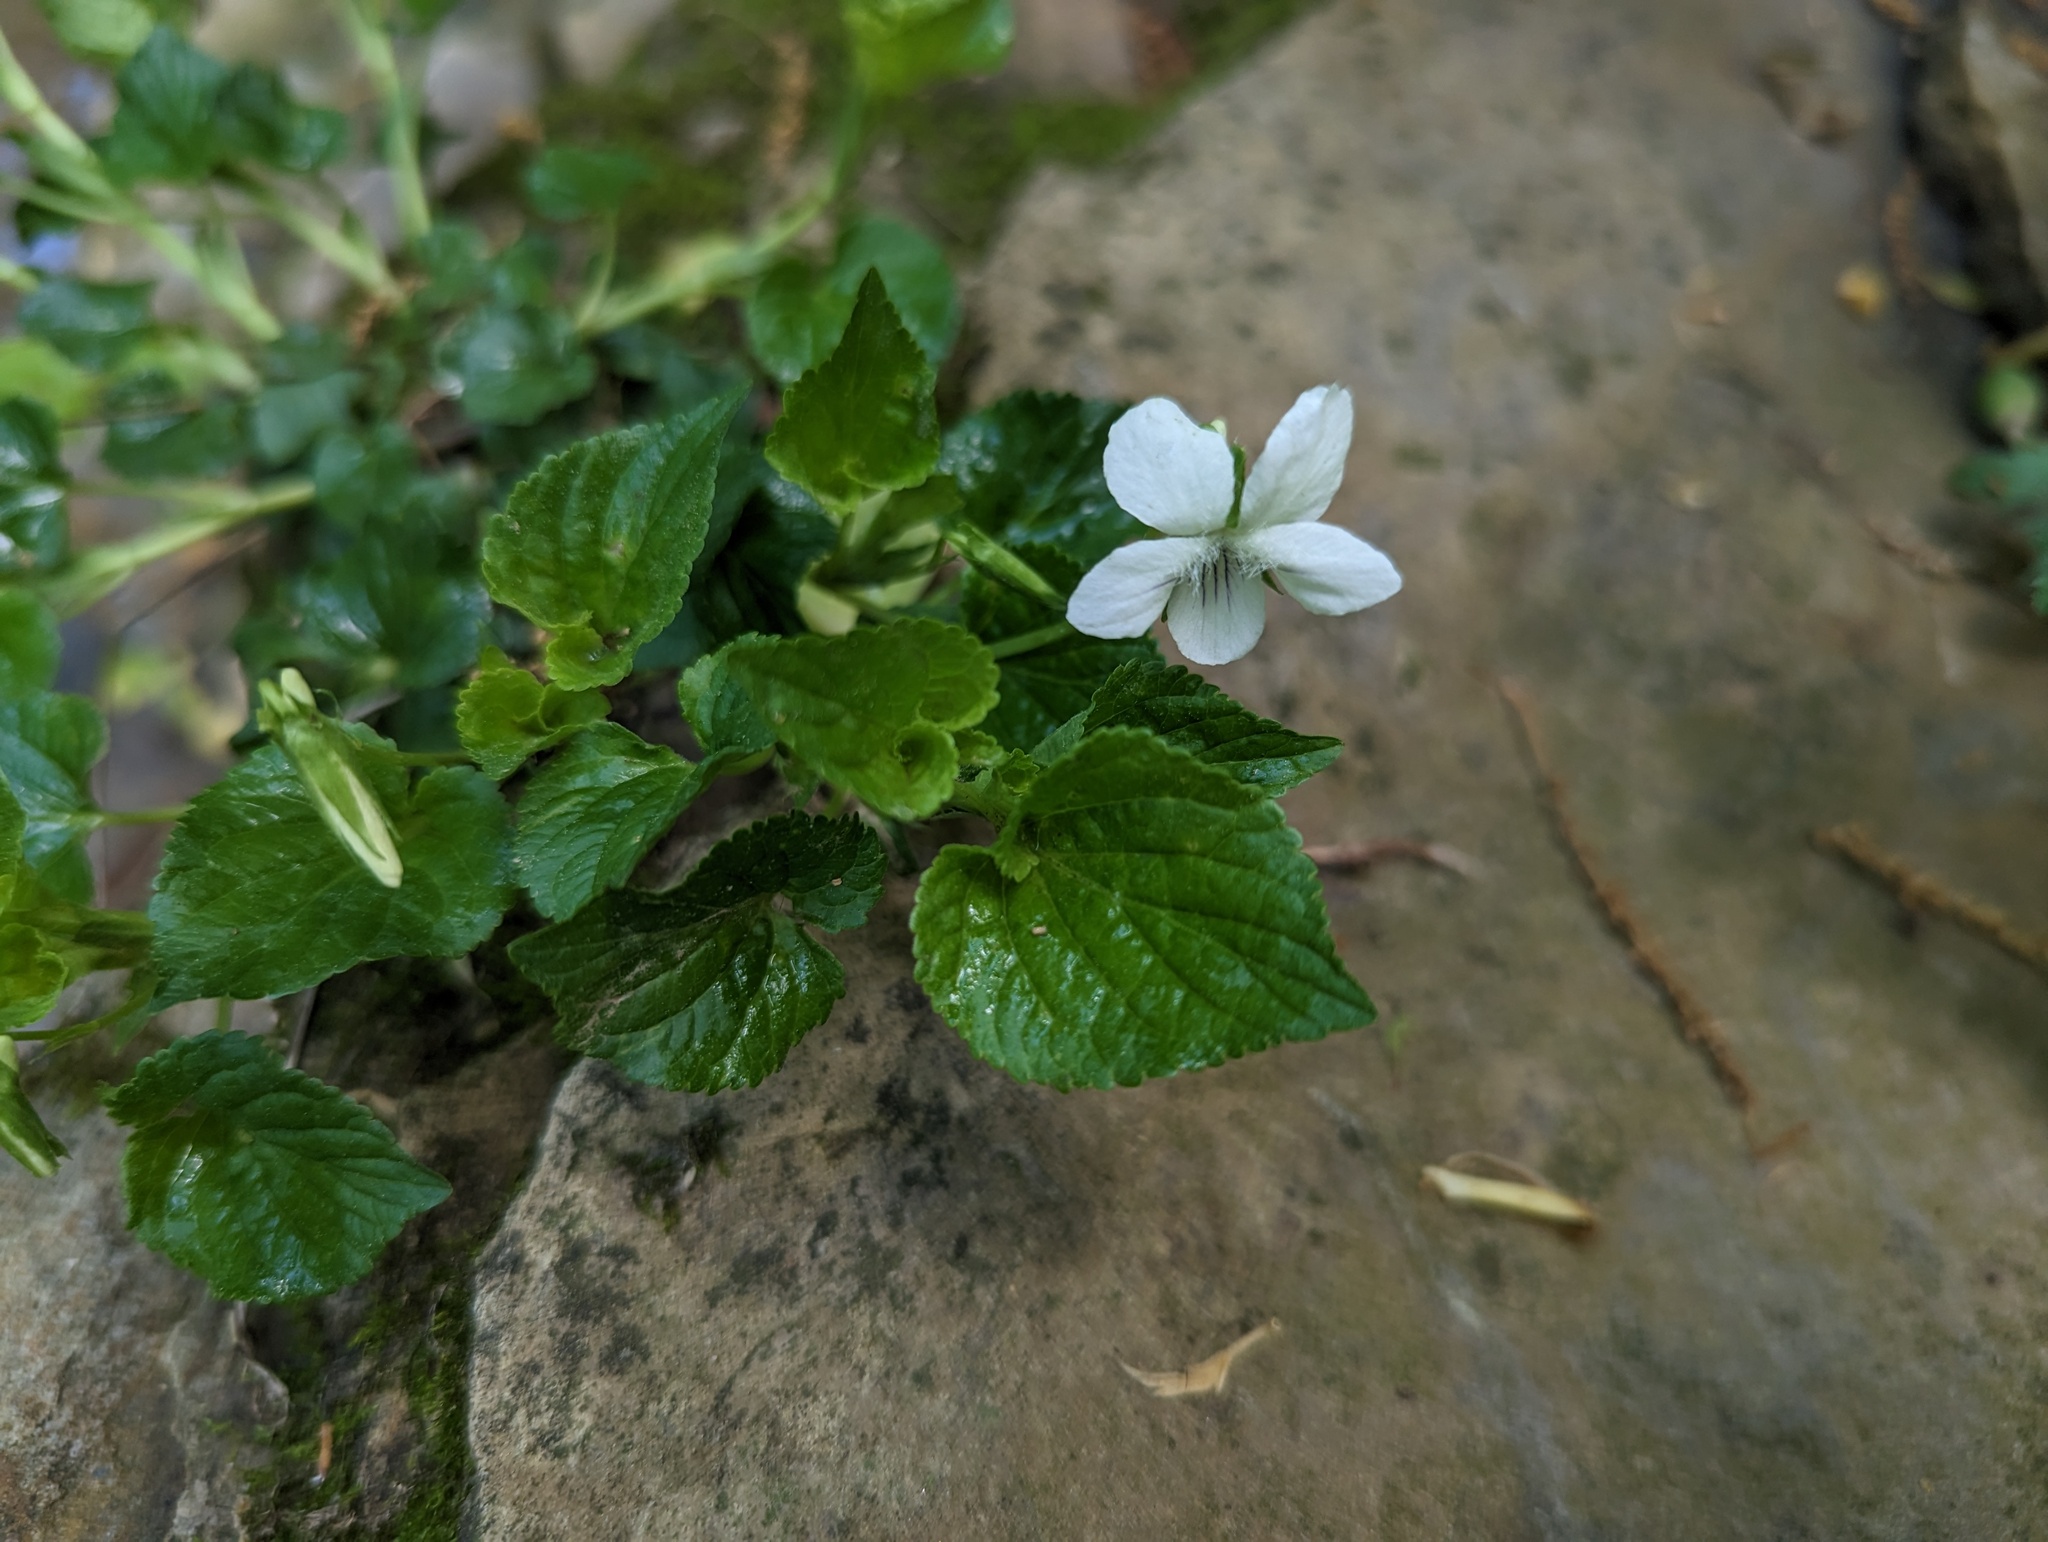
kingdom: Plantae
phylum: Tracheophyta
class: Magnoliopsida
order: Malpighiales
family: Violaceae
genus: Viola
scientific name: Viola striata
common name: Cream violet
